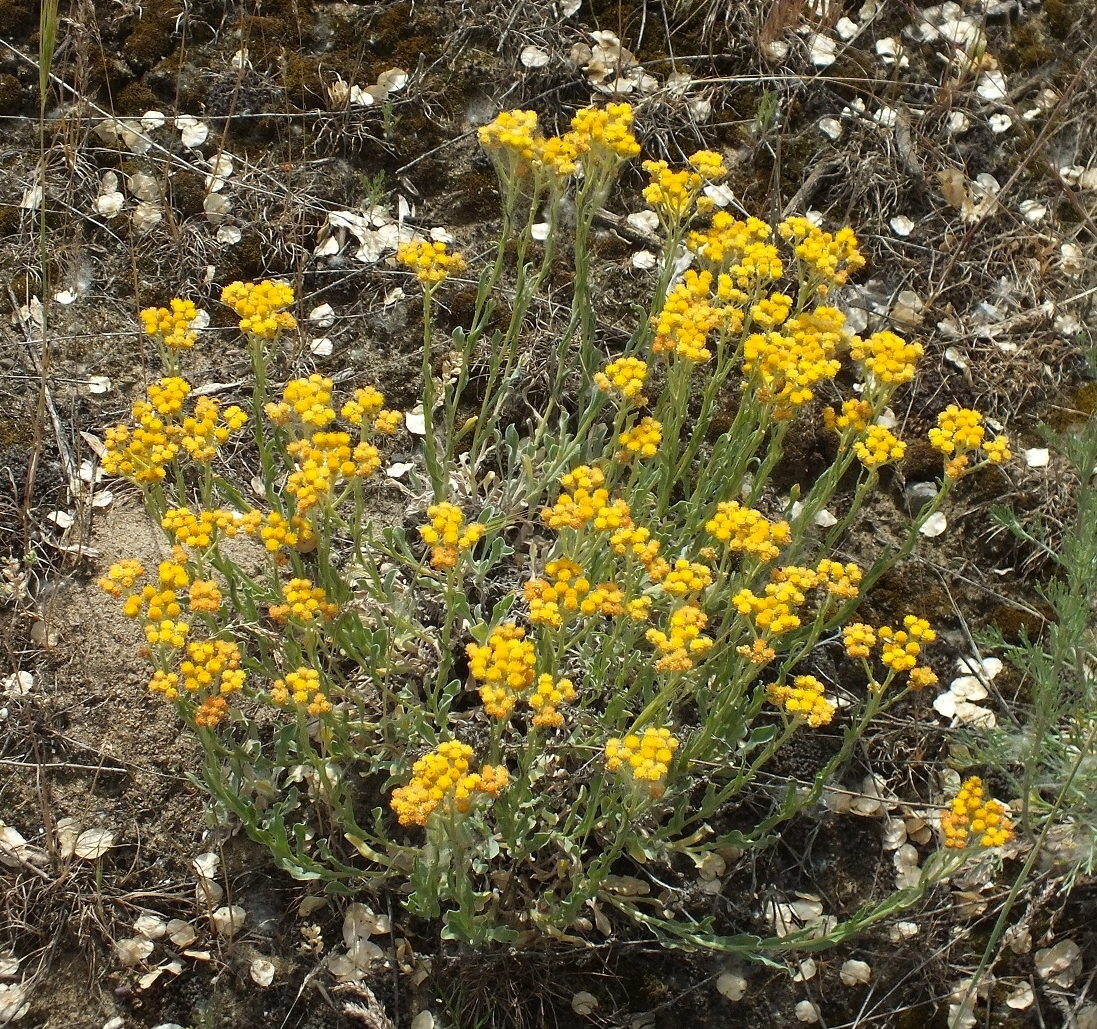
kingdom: Plantae
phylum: Tracheophyta
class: Magnoliopsida
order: Asterales
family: Asteraceae
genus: Helichrysum
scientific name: Helichrysum arenarium
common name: Strawflower
